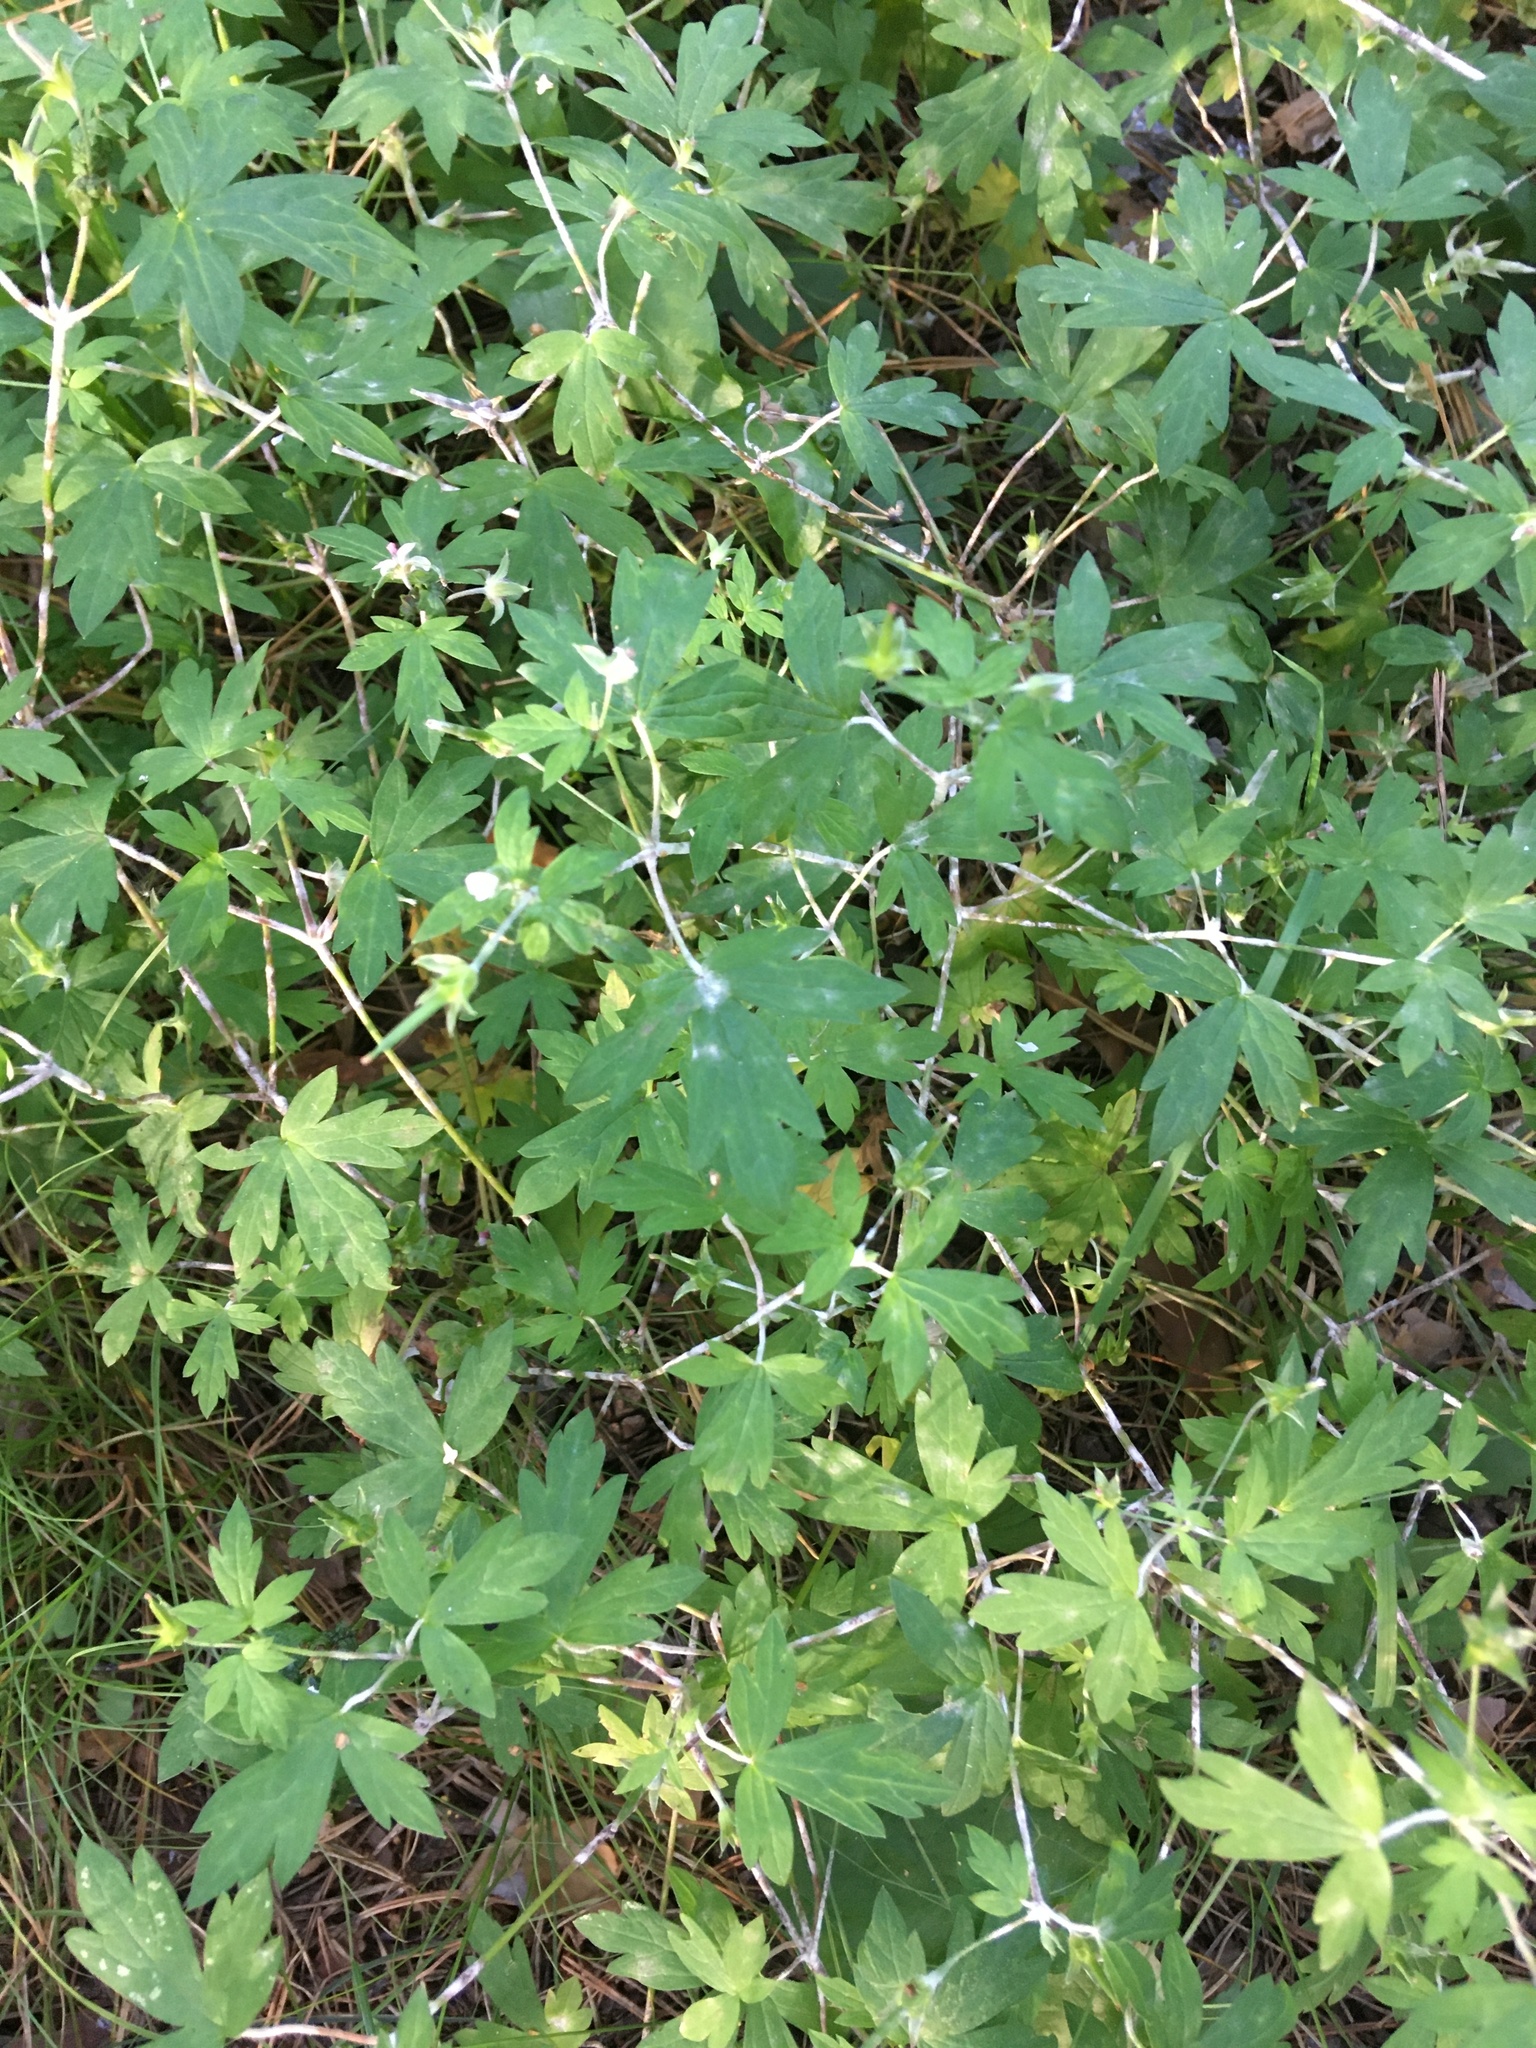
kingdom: Plantae
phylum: Tracheophyta
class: Magnoliopsida
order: Geraniales
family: Geraniaceae
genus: Geranium
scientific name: Geranium sibiricum
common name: Siberian crane's-bill
